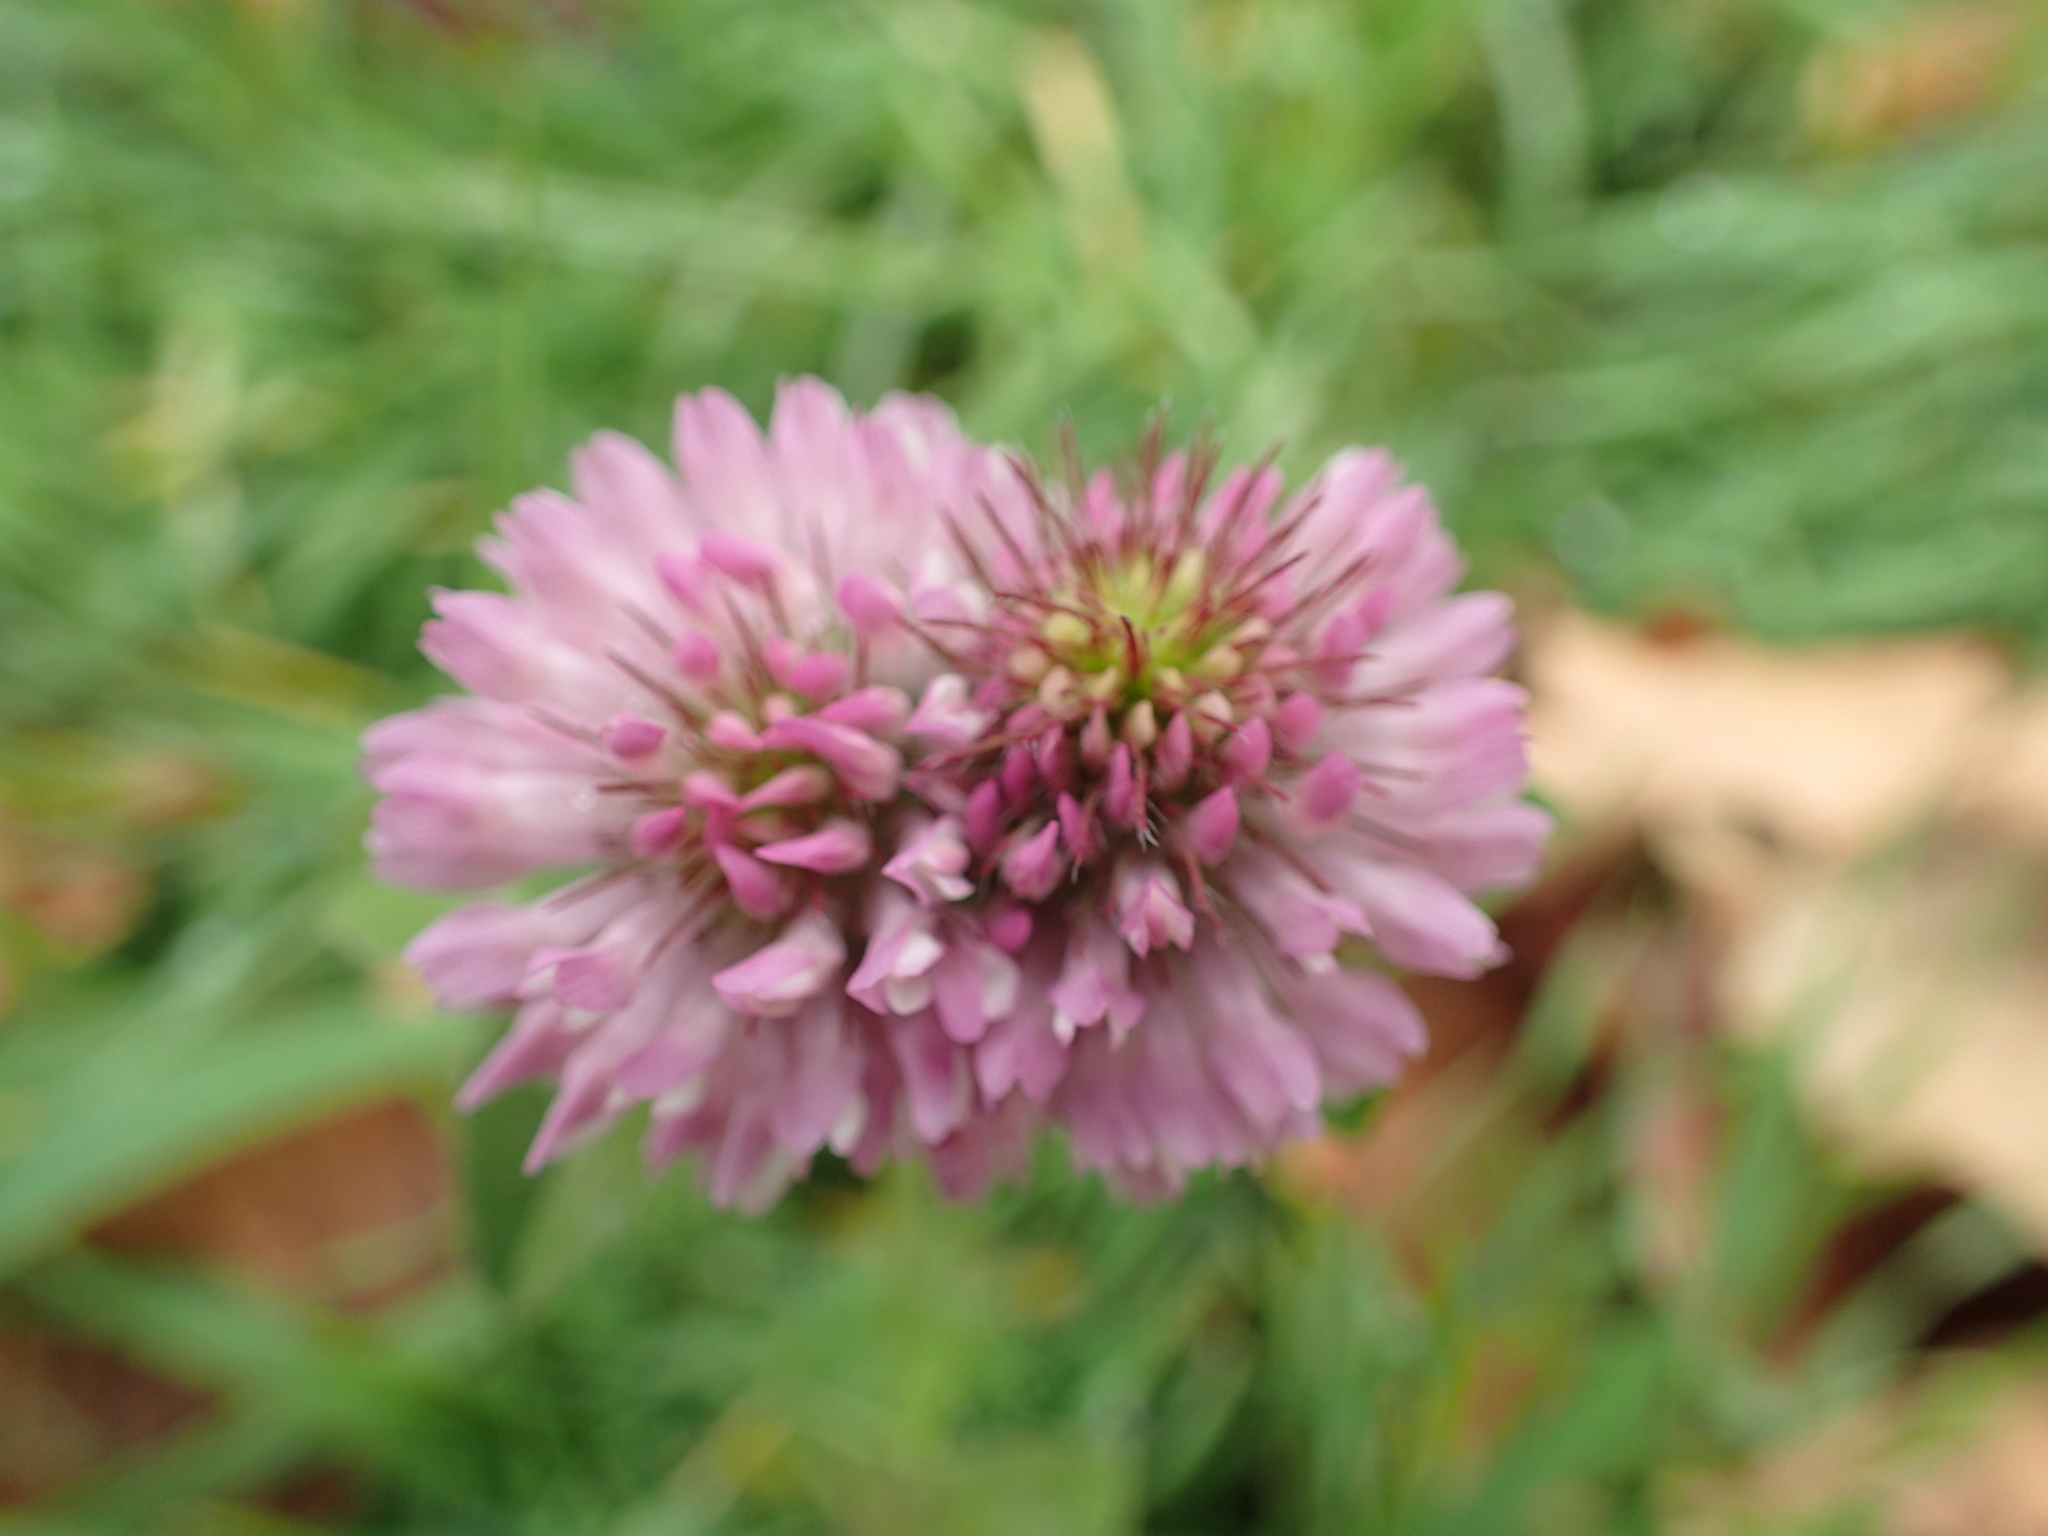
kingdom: Plantae
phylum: Tracheophyta
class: Magnoliopsida
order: Fabales
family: Fabaceae
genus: Trifolium
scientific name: Trifolium pratense
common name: Red clover
